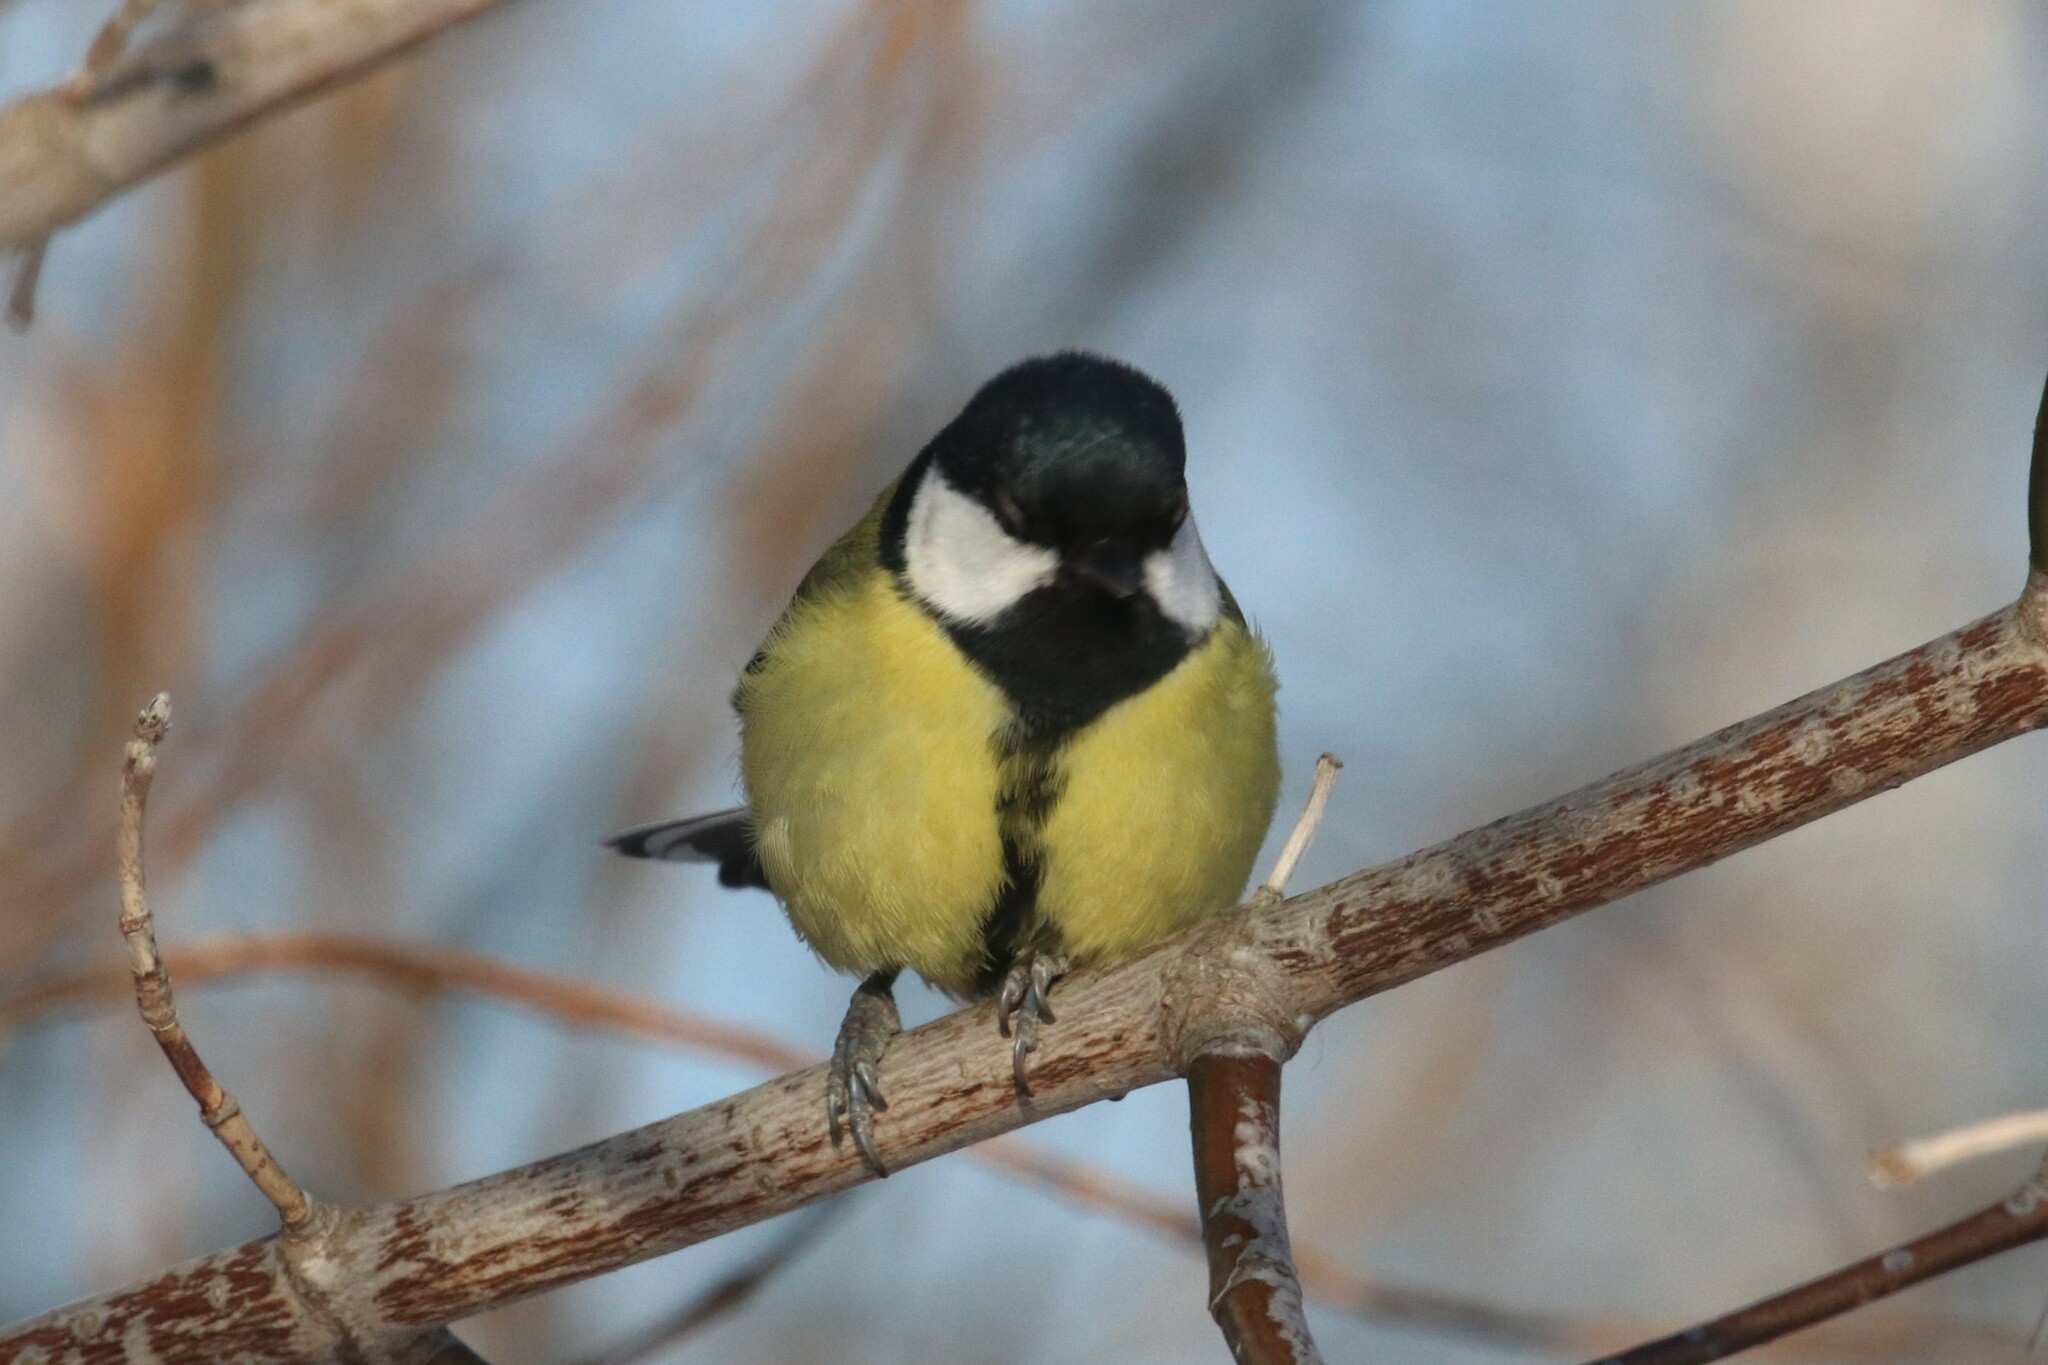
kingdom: Animalia
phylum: Chordata
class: Aves
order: Passeriformes
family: Paridae
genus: Parus
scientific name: Parus major
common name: Great tit
